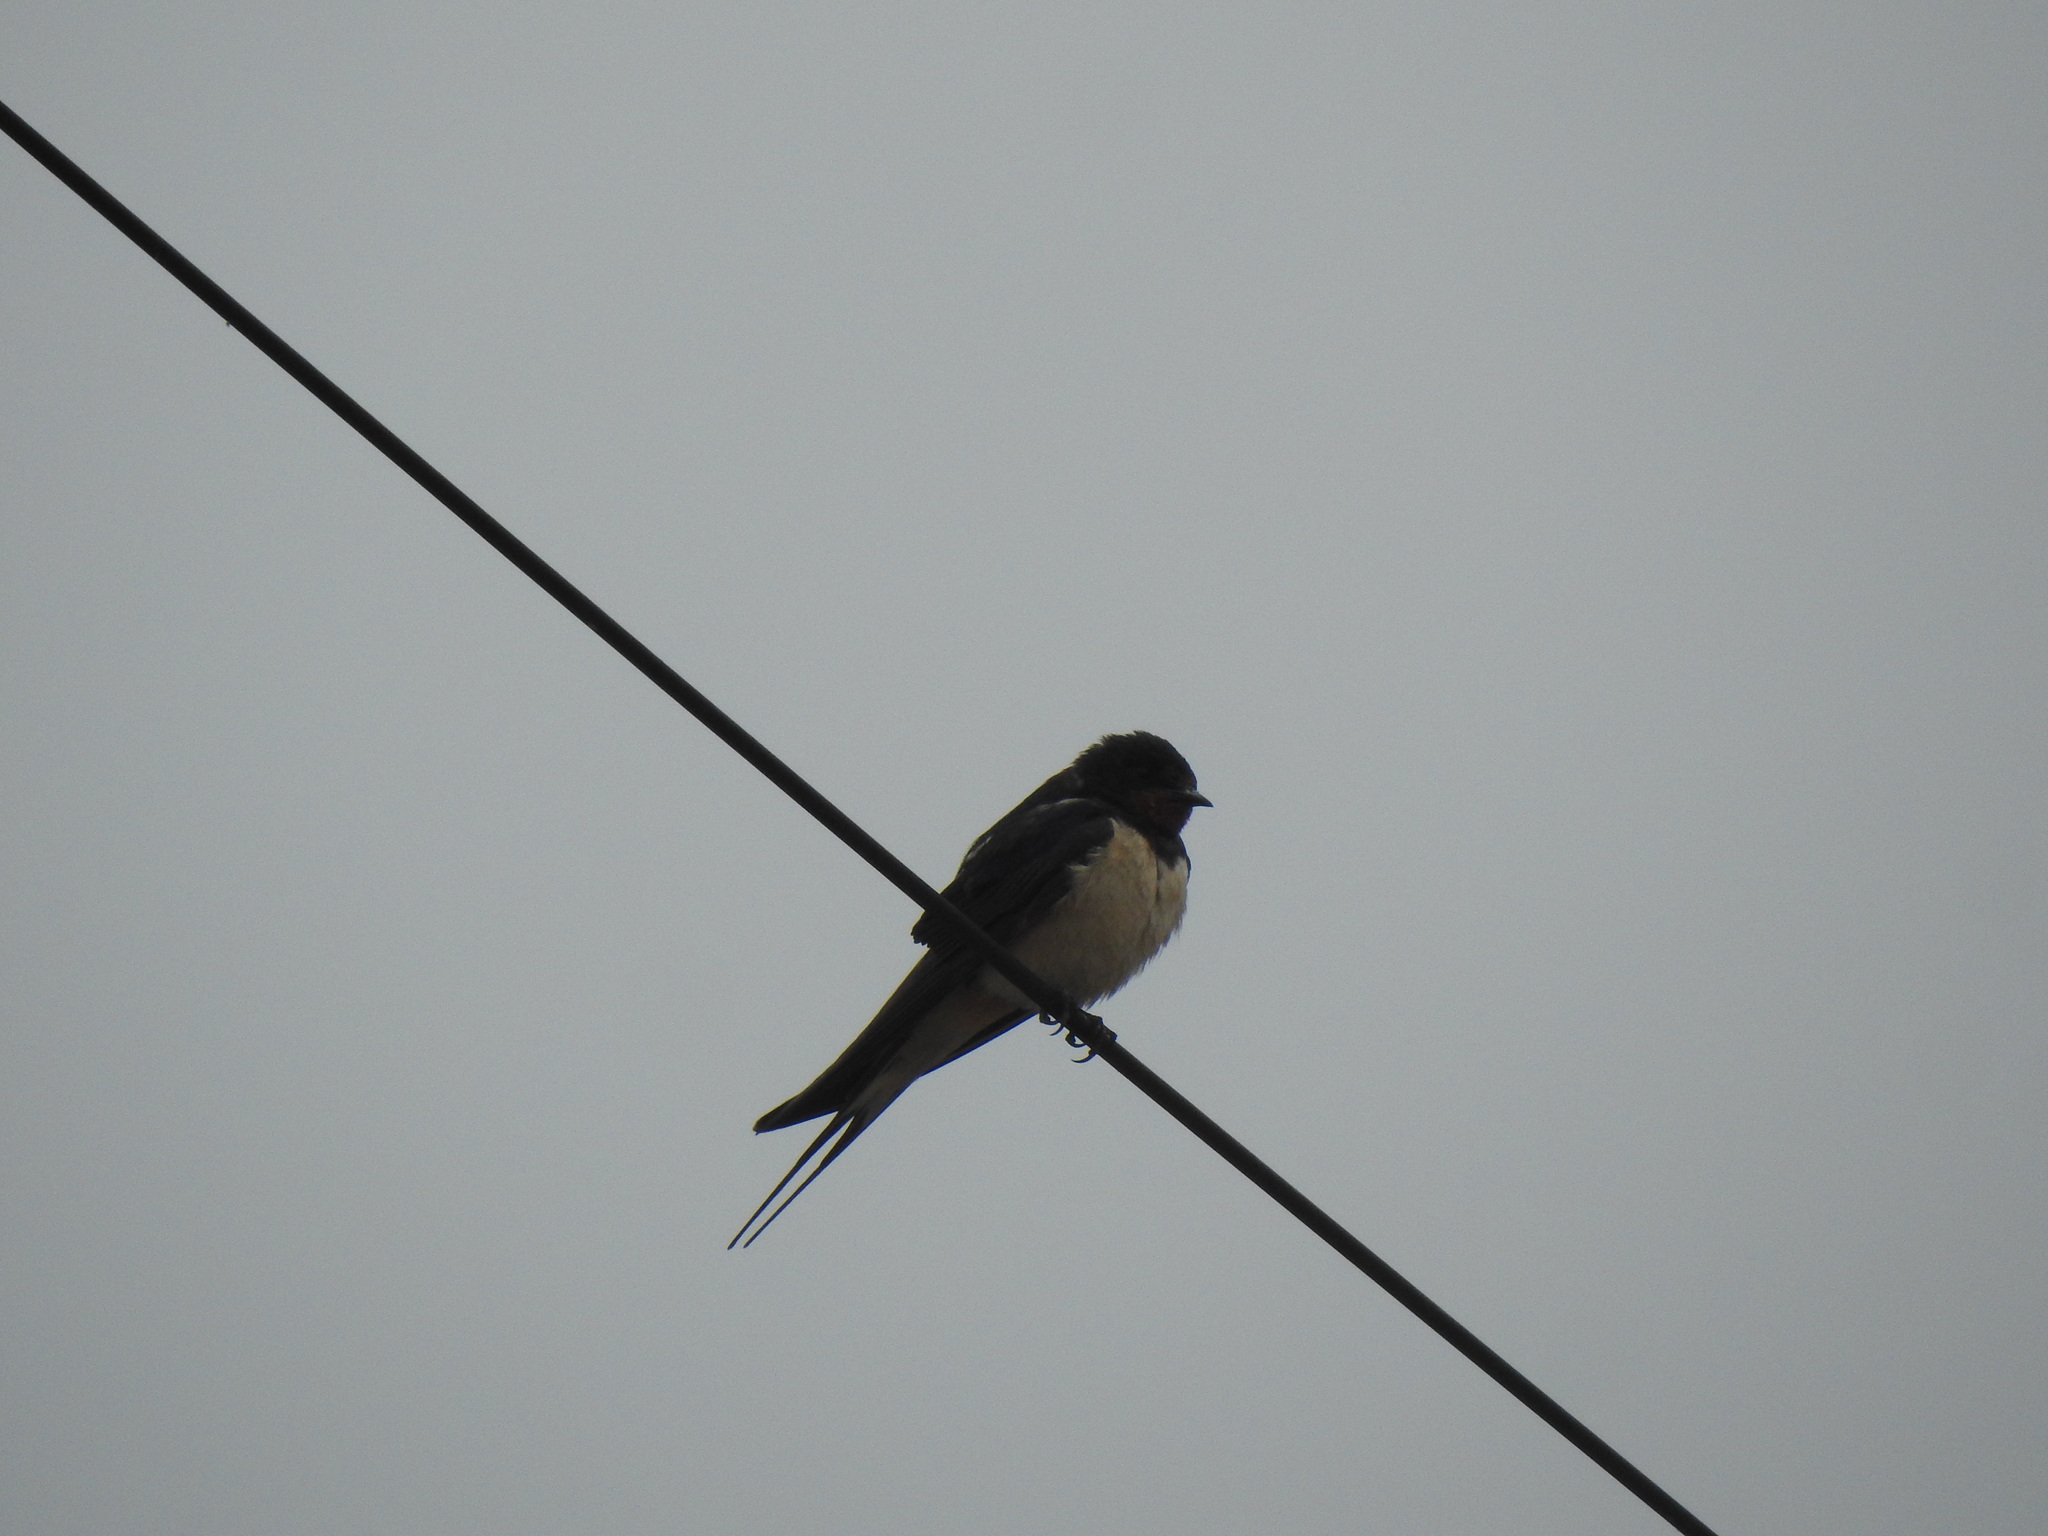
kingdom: Animalia
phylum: Chordata
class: Aves
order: Passeriformes
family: Hirundinidae
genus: Hirundo
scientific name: Hirundo rustica
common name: Barn swallow
